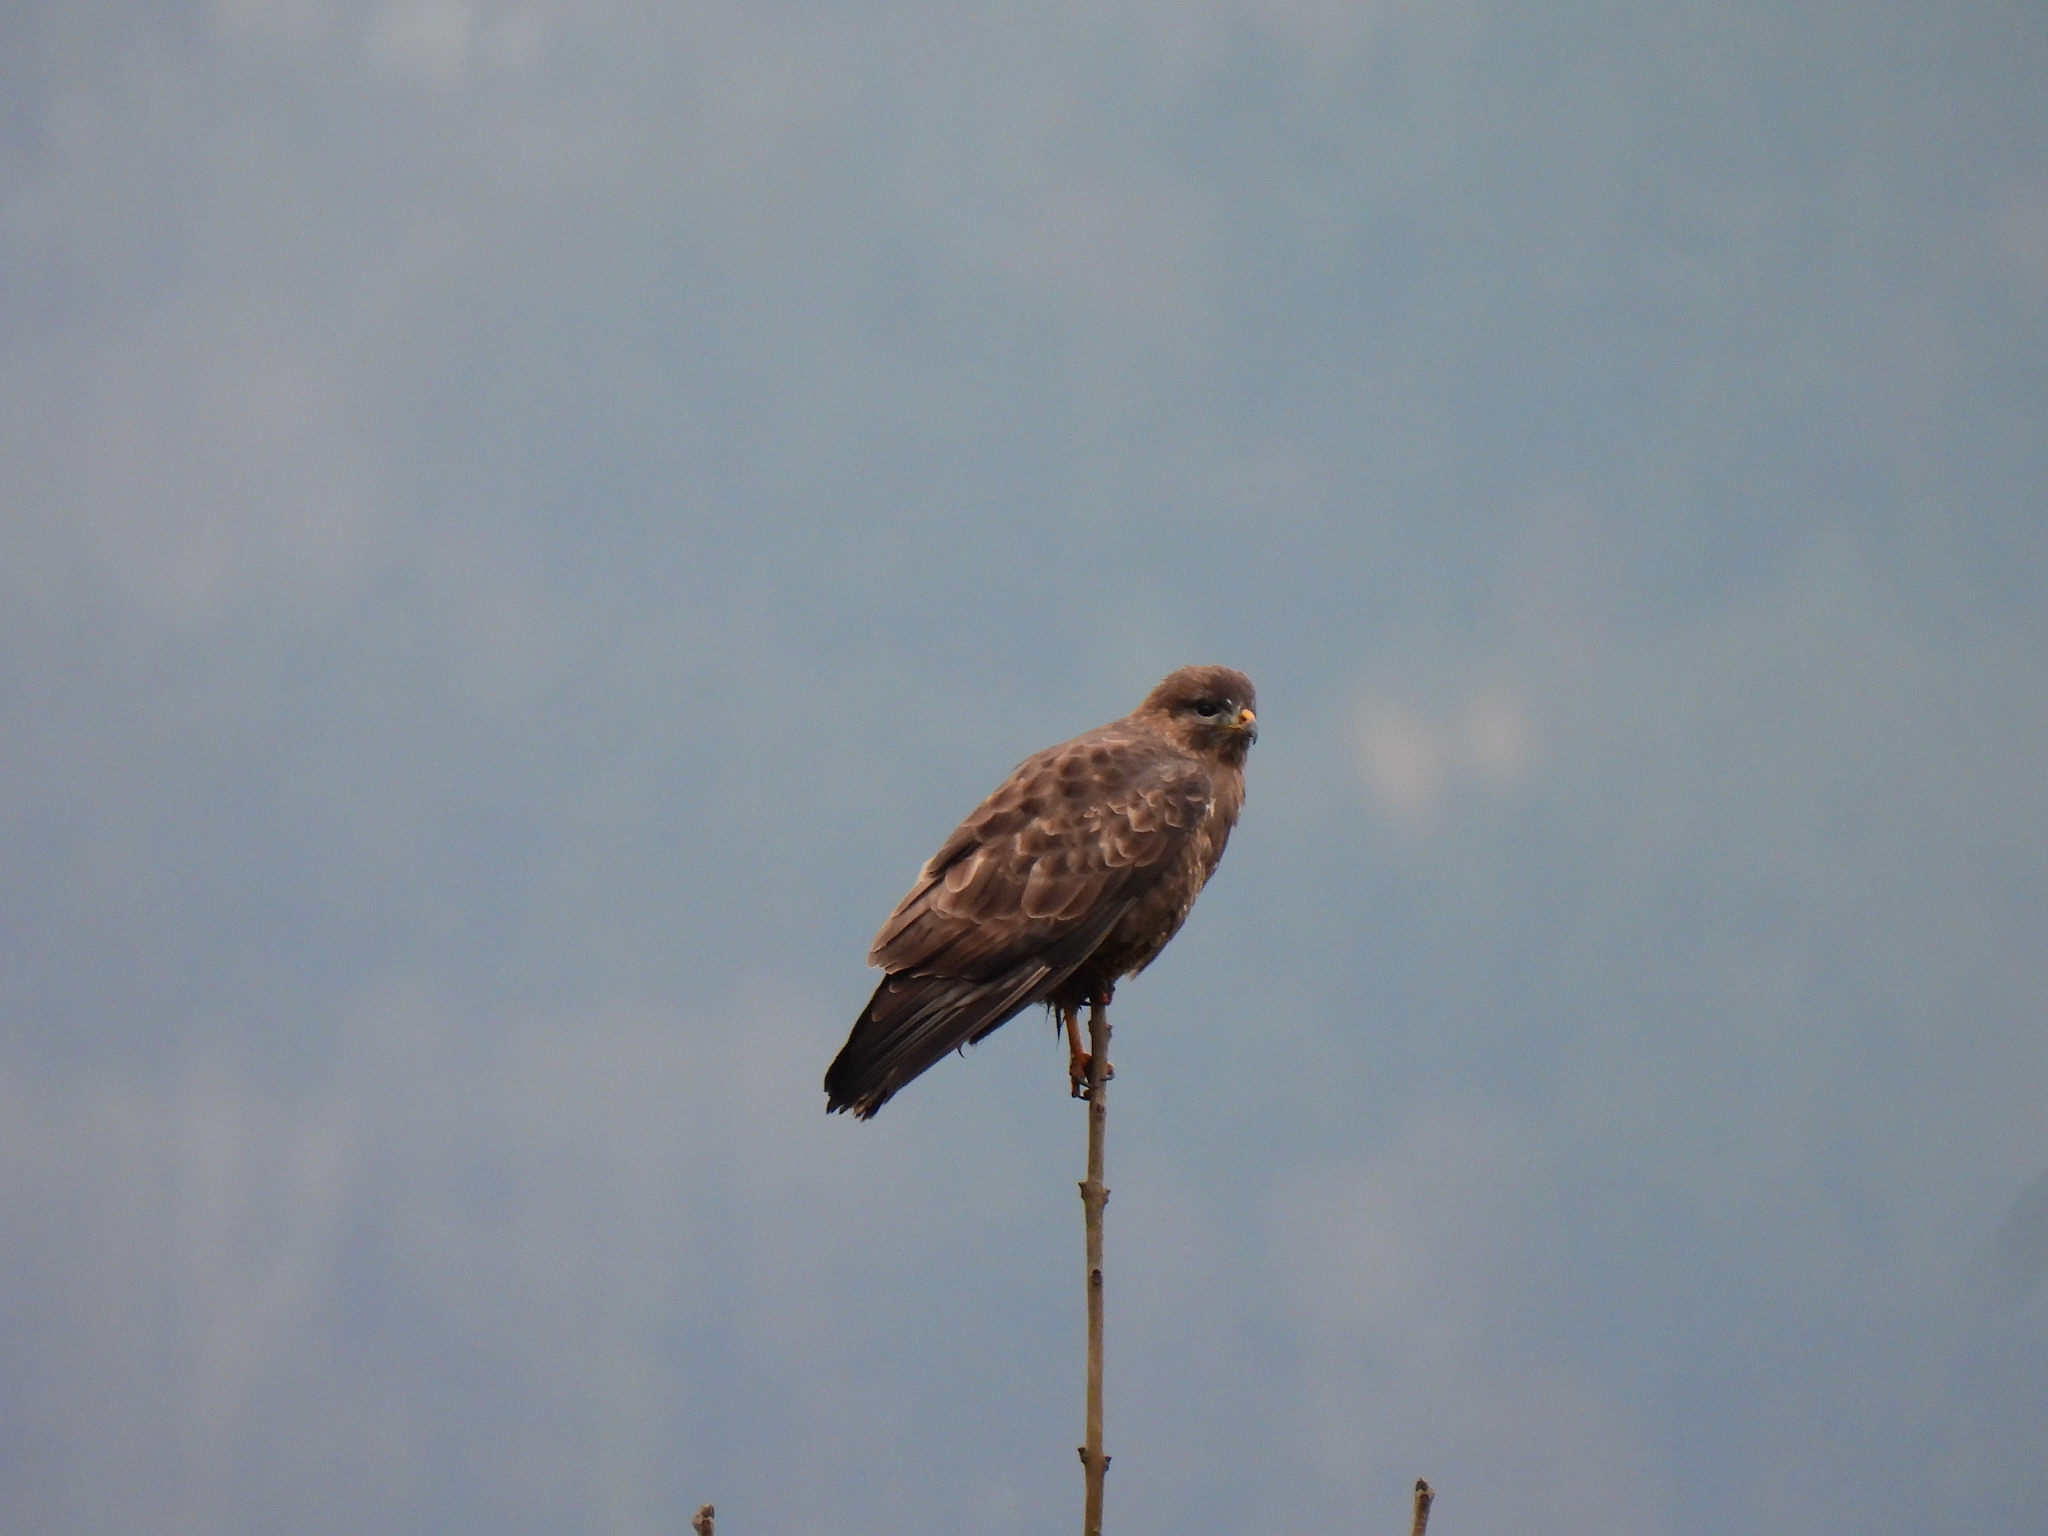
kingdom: Animalia
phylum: Chordata
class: Aves
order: Accipitriformes
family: Accipitridae
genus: Buteo
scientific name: Buteo buteo
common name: Common buzzard
